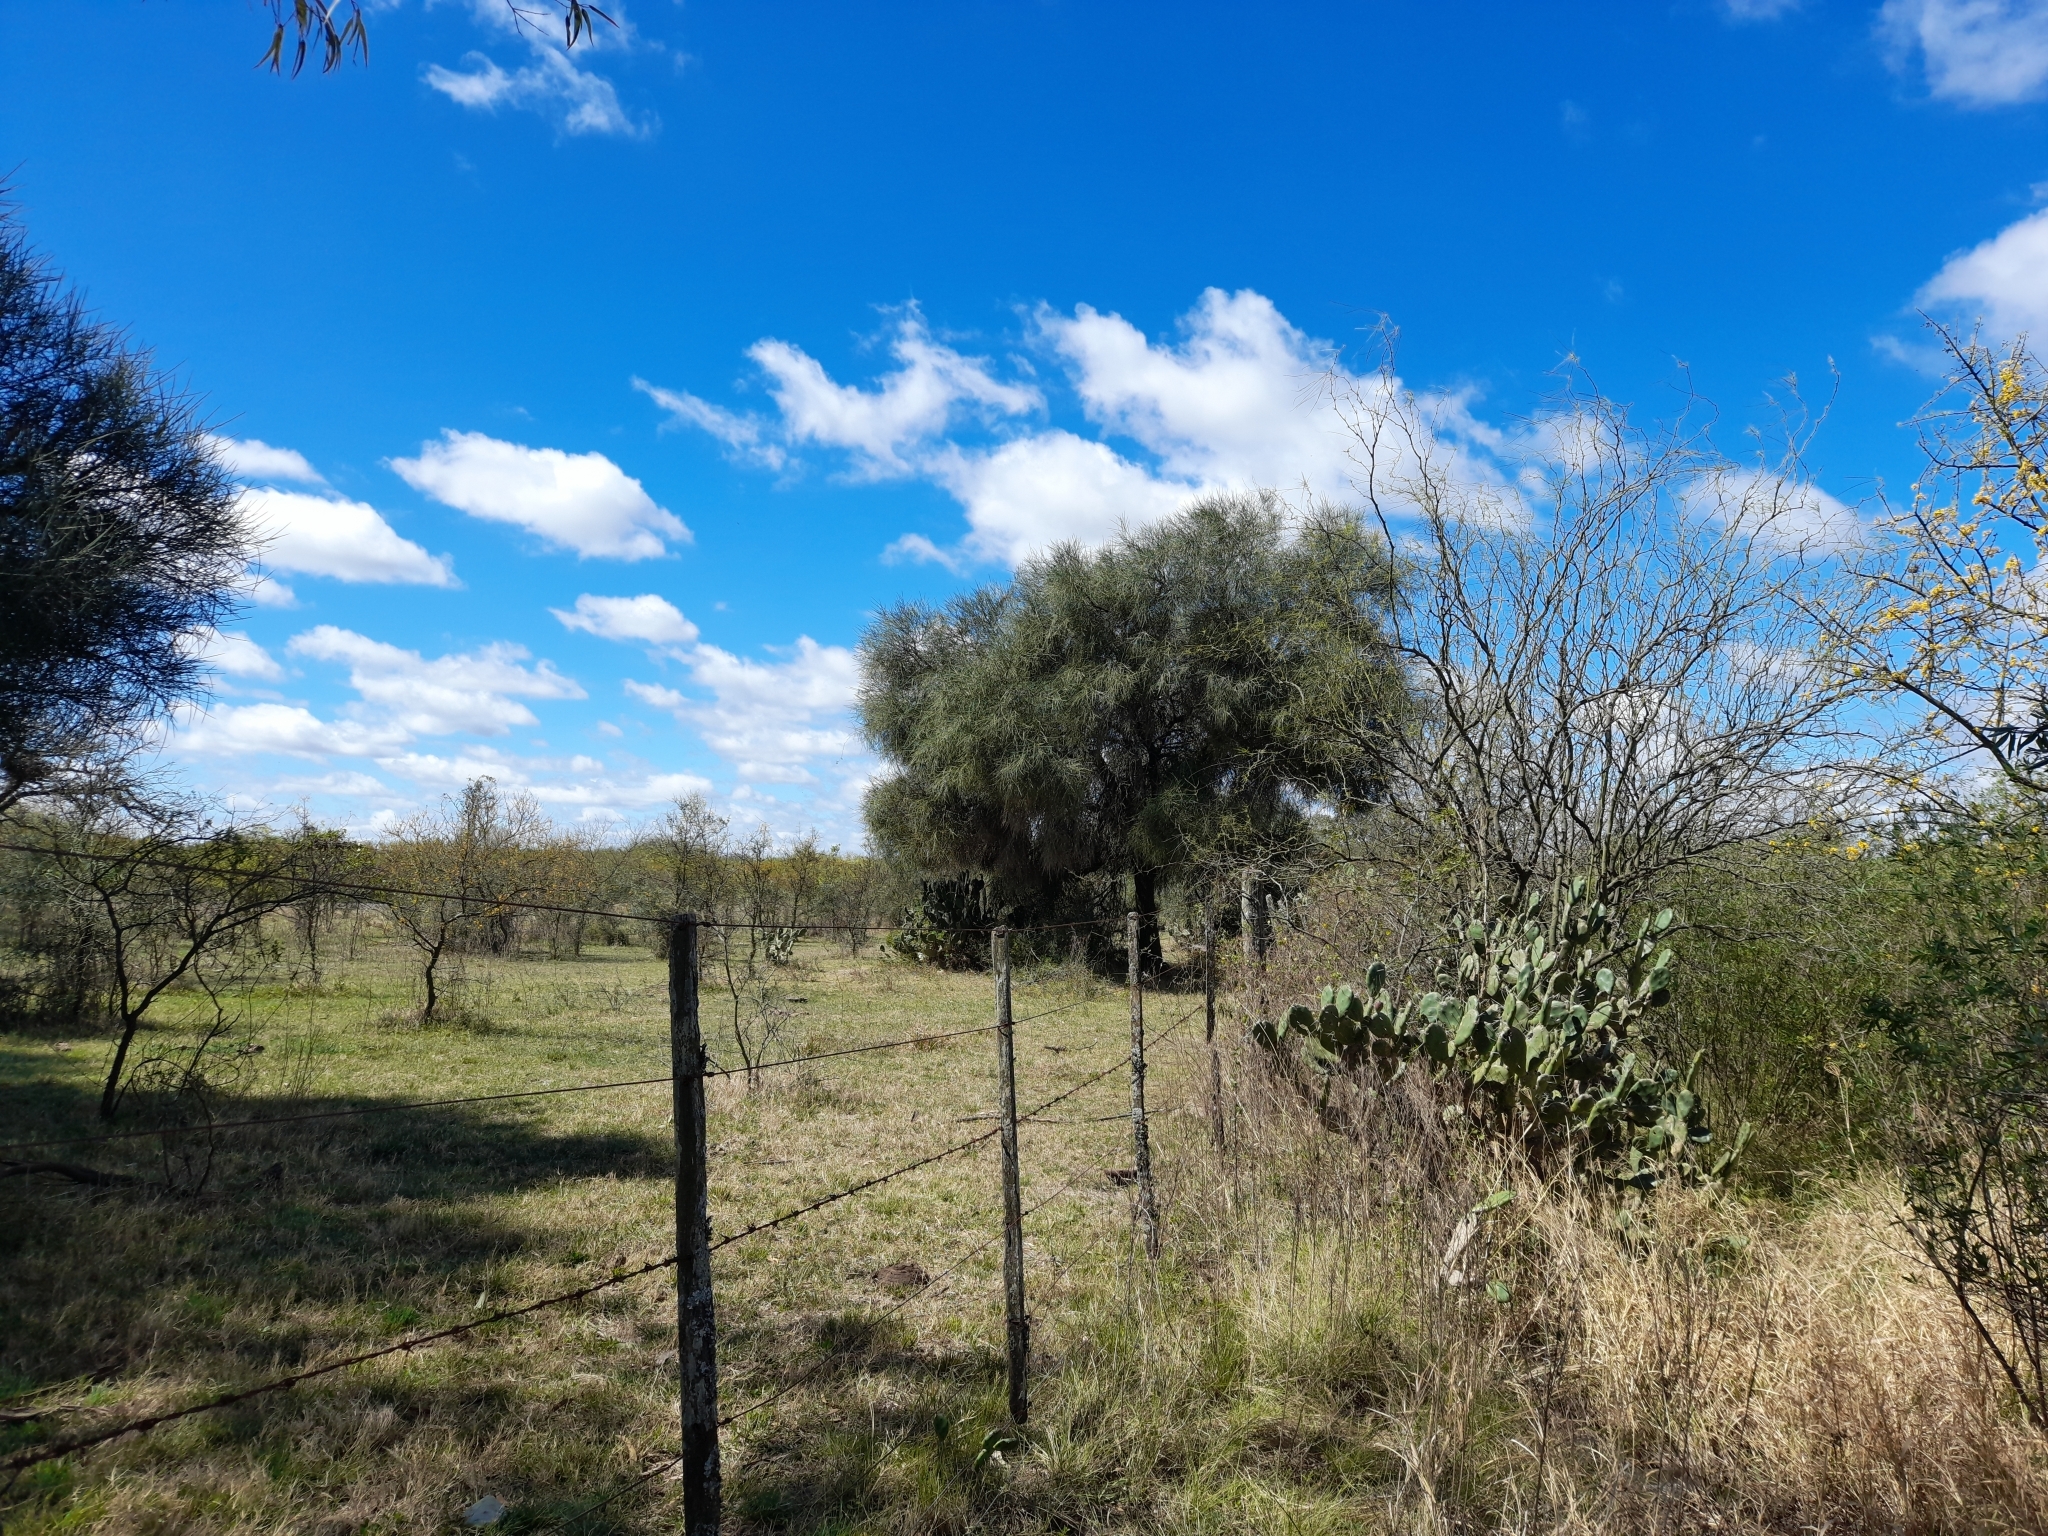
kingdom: Plantae
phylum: Tracheophyta
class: Magnoliopsida
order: Fabales
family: Fabaceae
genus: Prosopis
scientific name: Prosopis kuntzei
